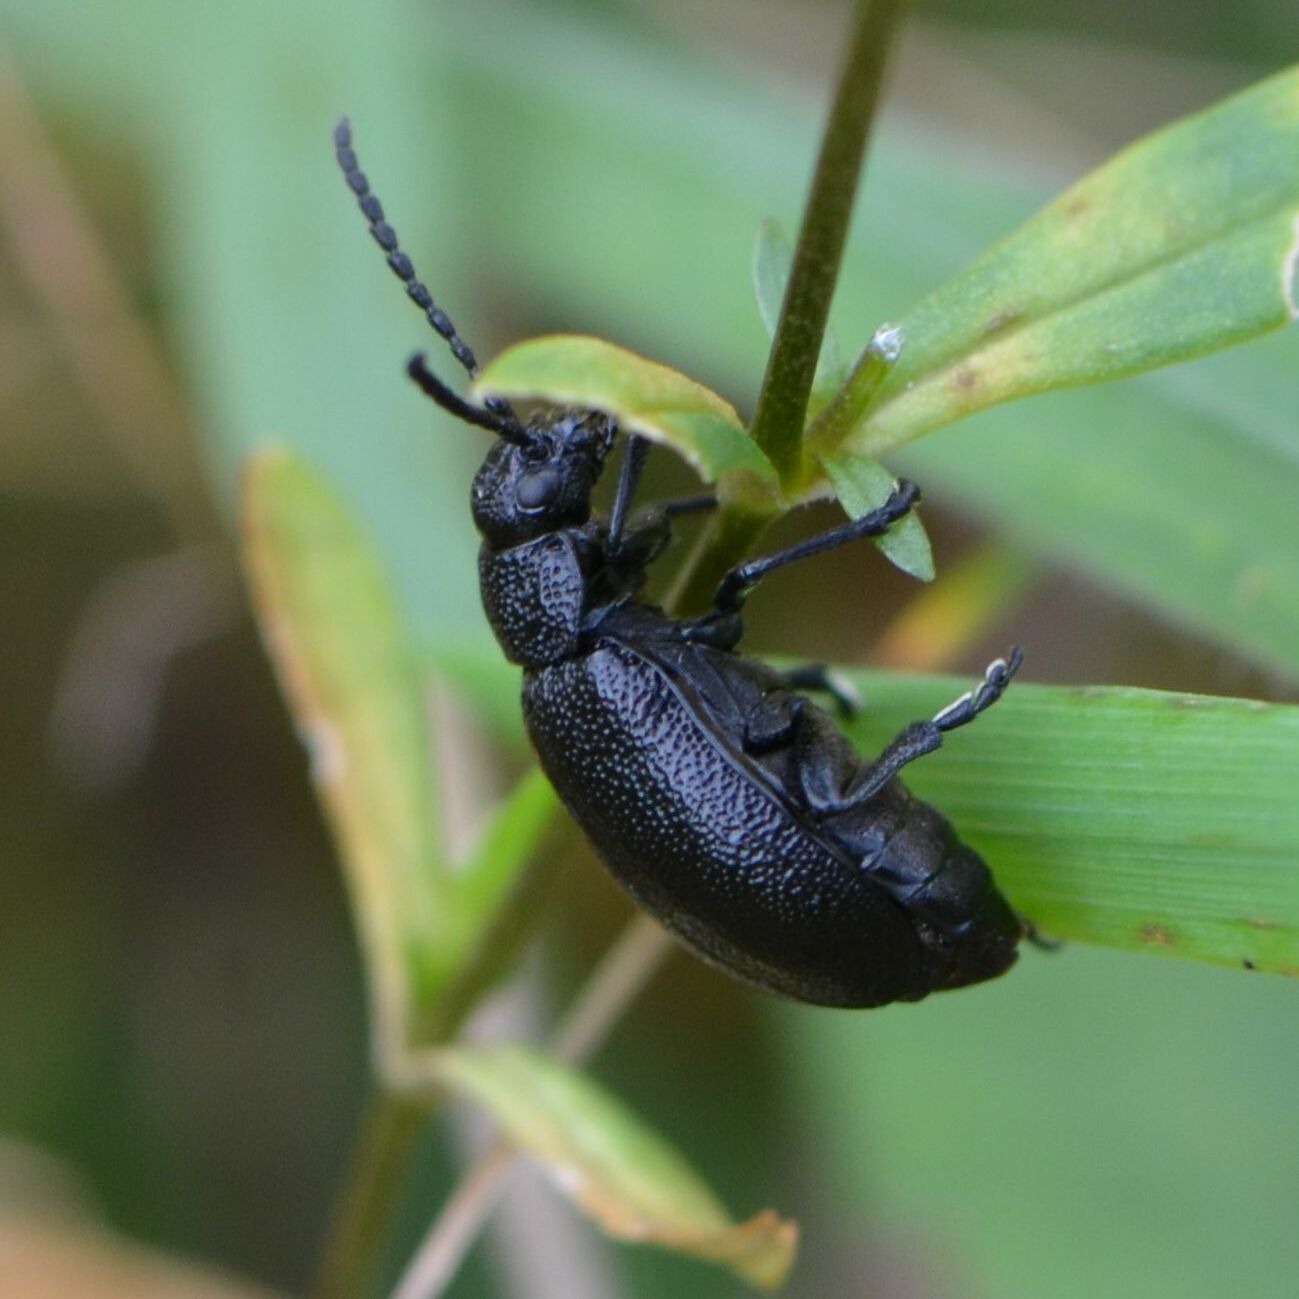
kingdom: Animalia
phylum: Arthropoda
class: Insecta
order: Coleoptera
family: Chrysomelidae
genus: Galeruca
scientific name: Galeruca tanaceti
